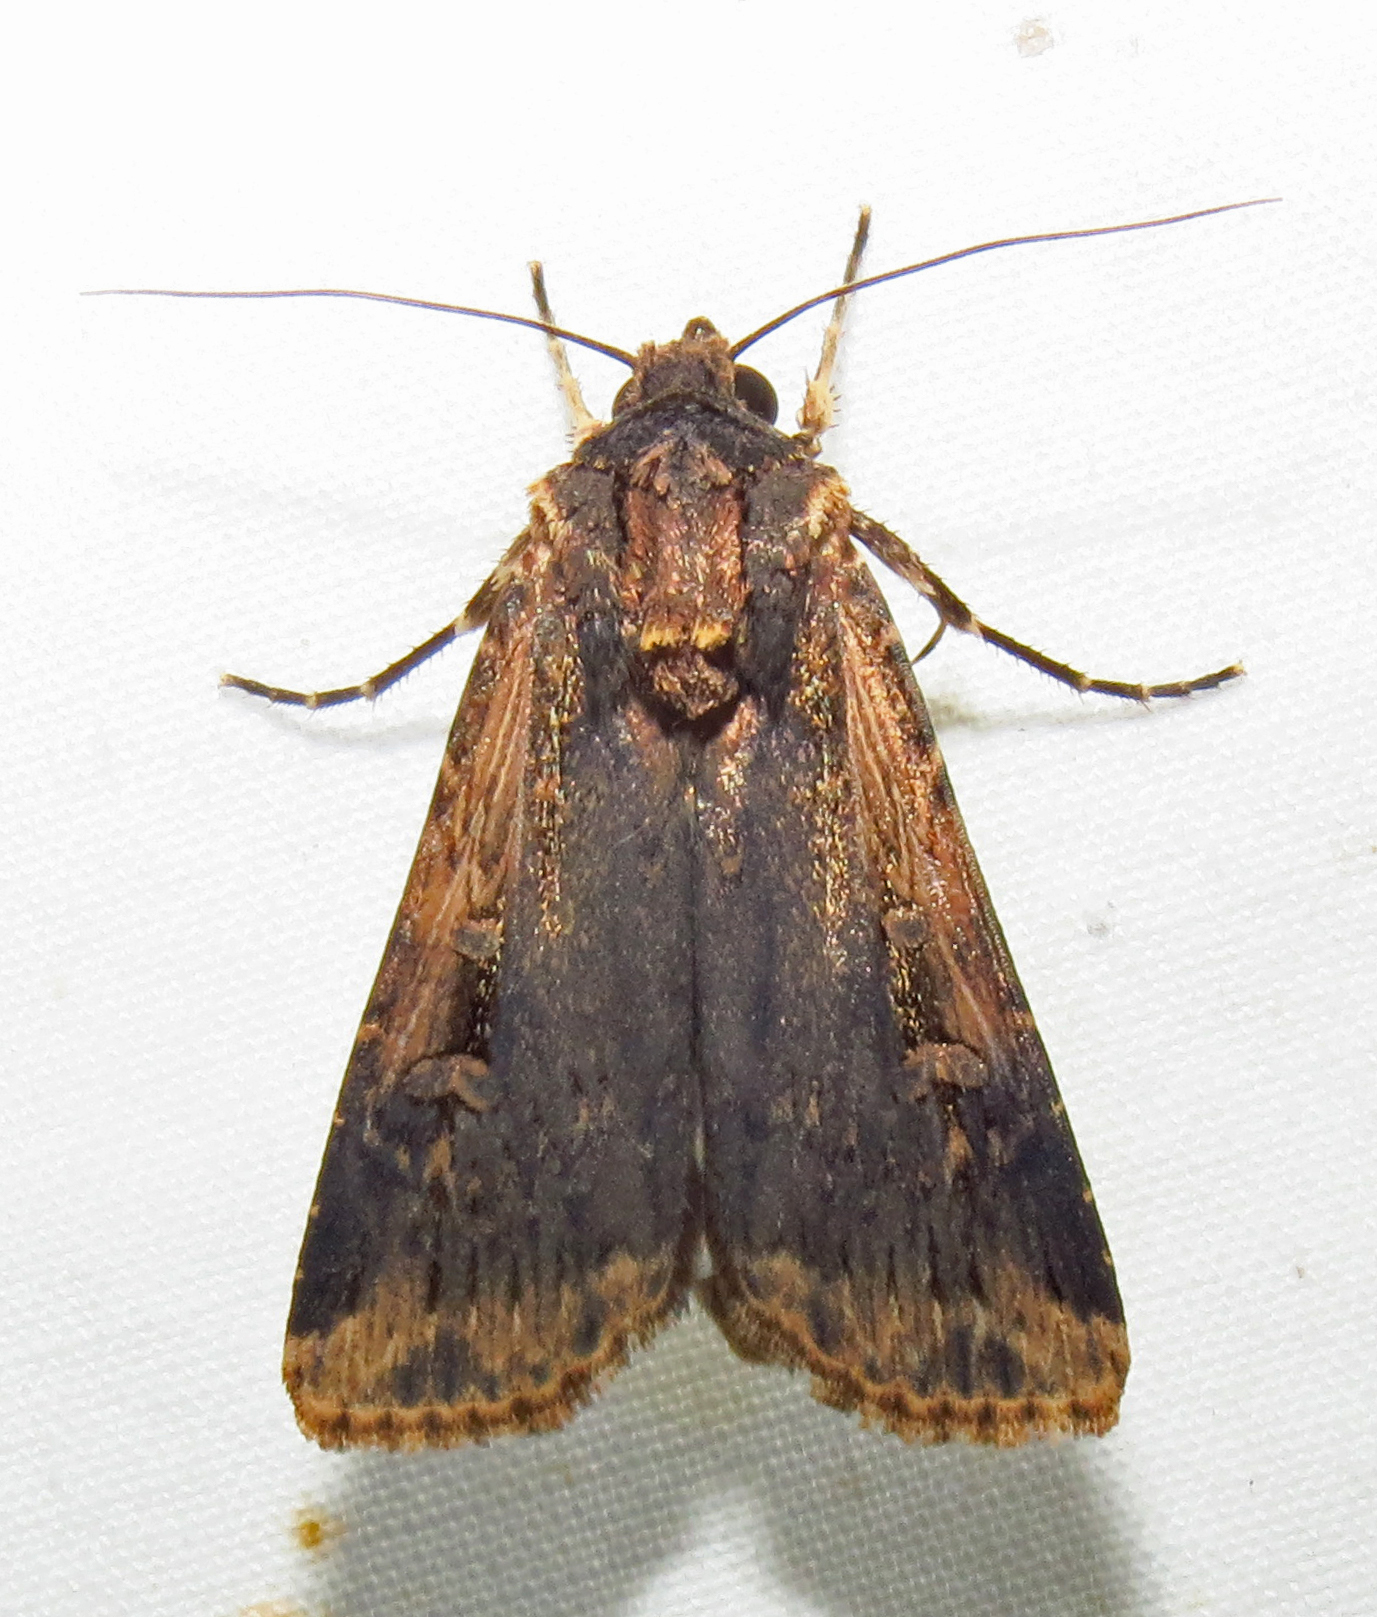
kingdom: Animalia
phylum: Arthropoda
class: Insecta
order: Lepidoptera
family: Noctuidae
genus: Feltia
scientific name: Feltia subterranea
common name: Granulate cutworm
